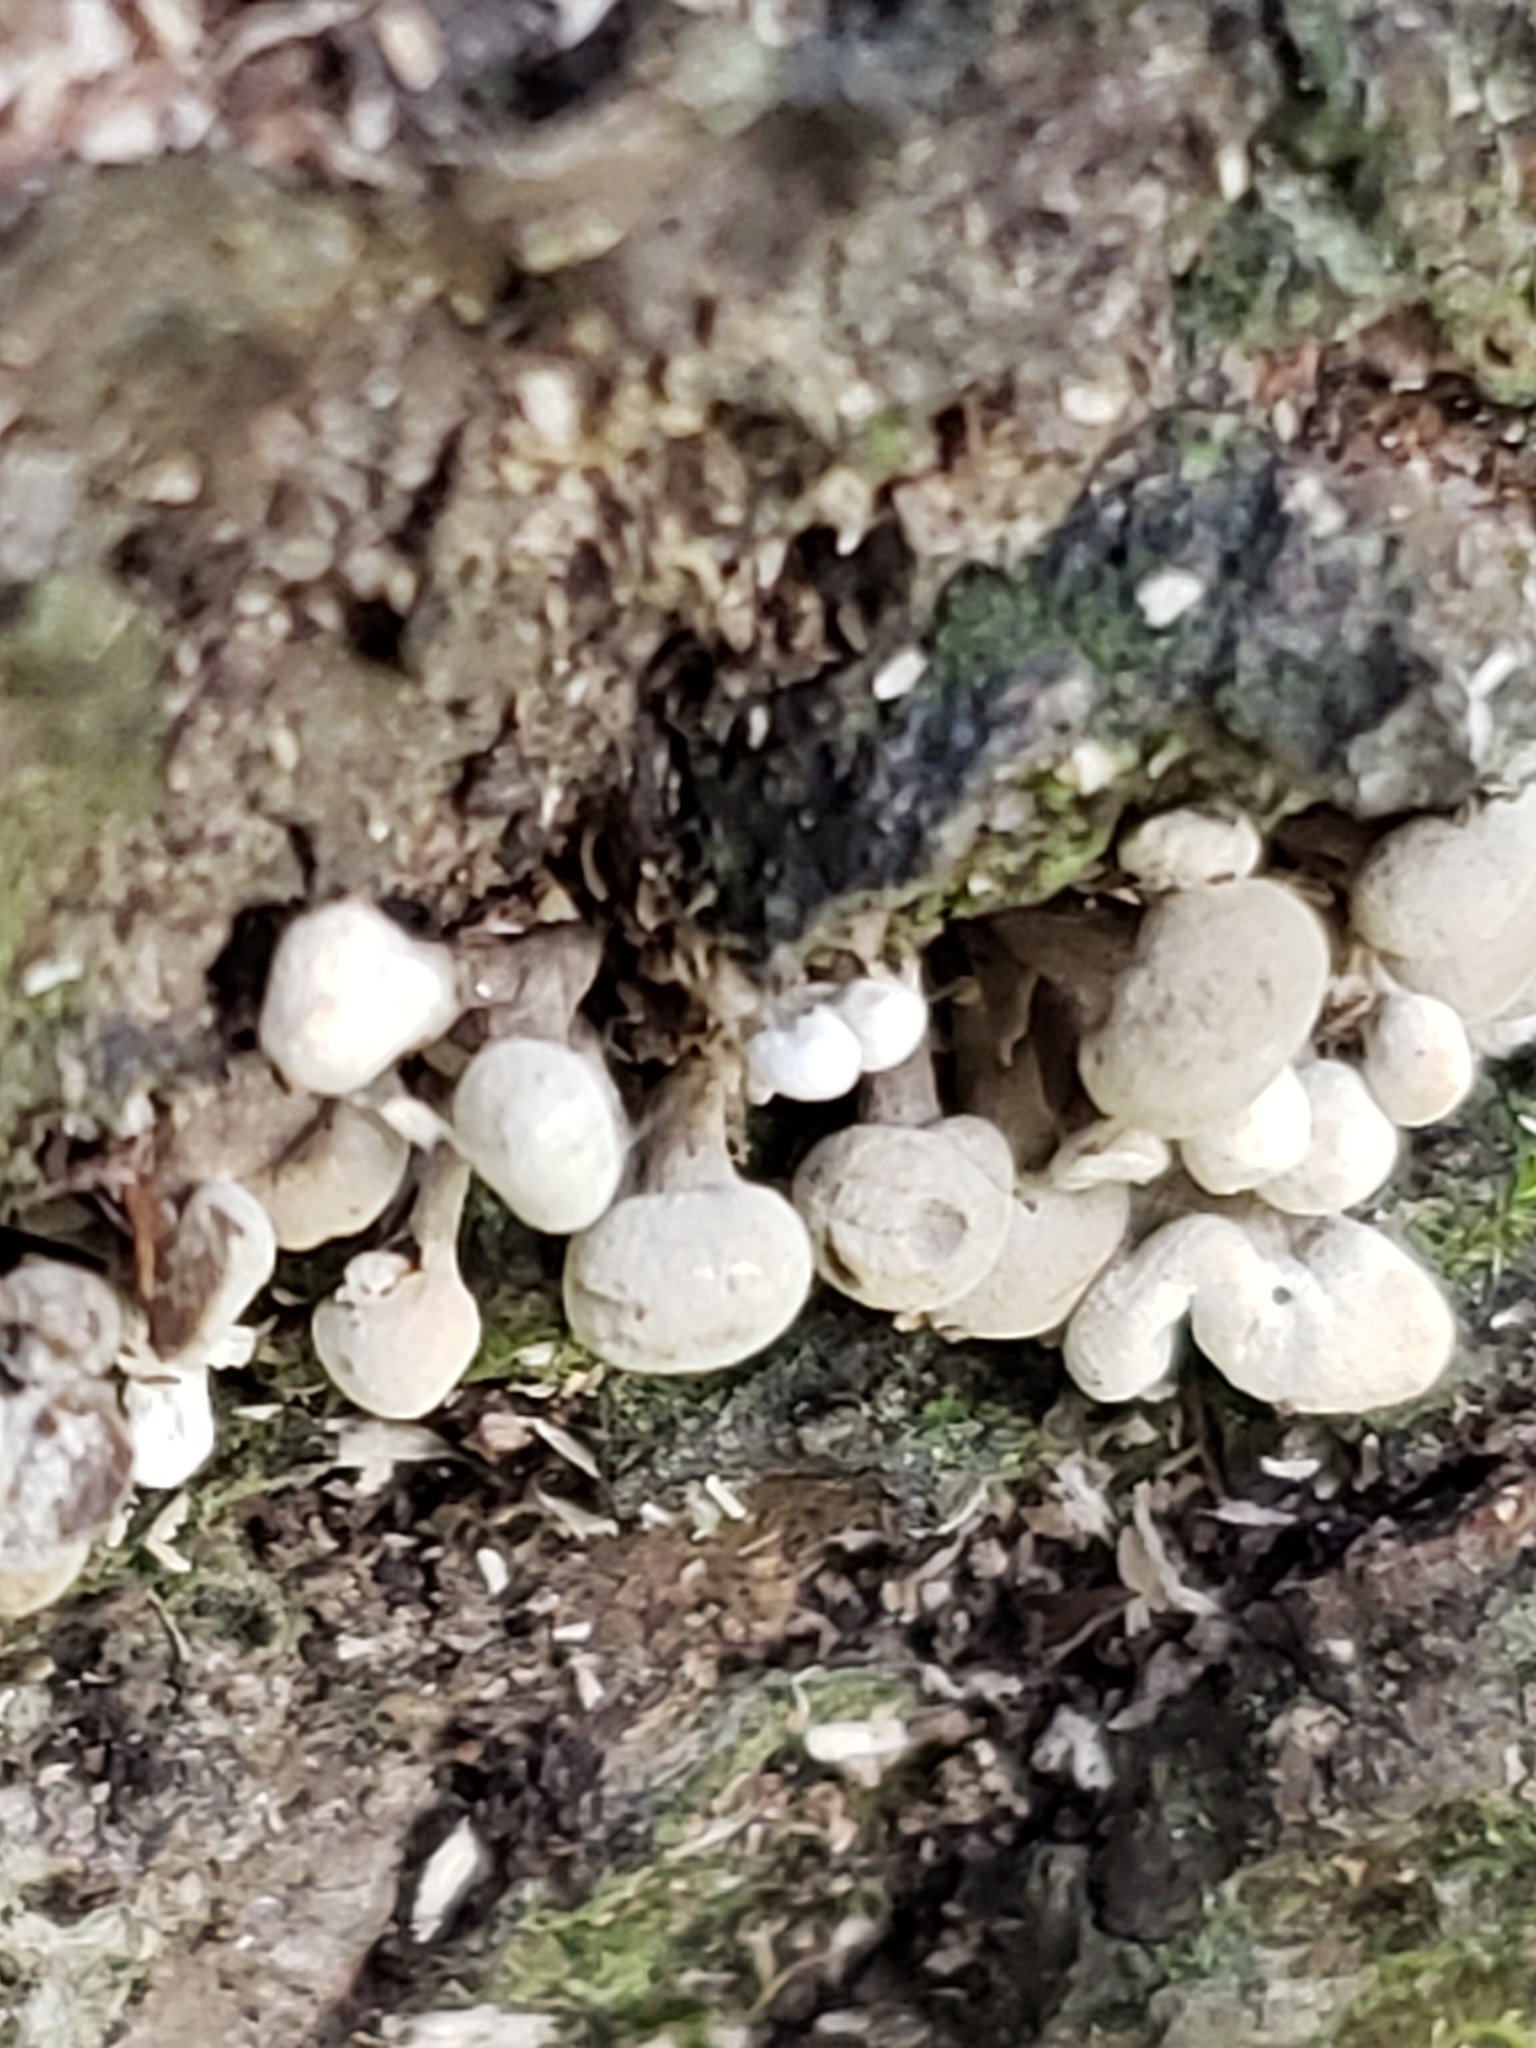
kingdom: Fungi
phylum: Basidiomycota
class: Atractiellomycetes
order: Atractiellales
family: Phleogenaceae
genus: Phleogena
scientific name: Phleogena faginea
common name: Fenugreek stalkball
